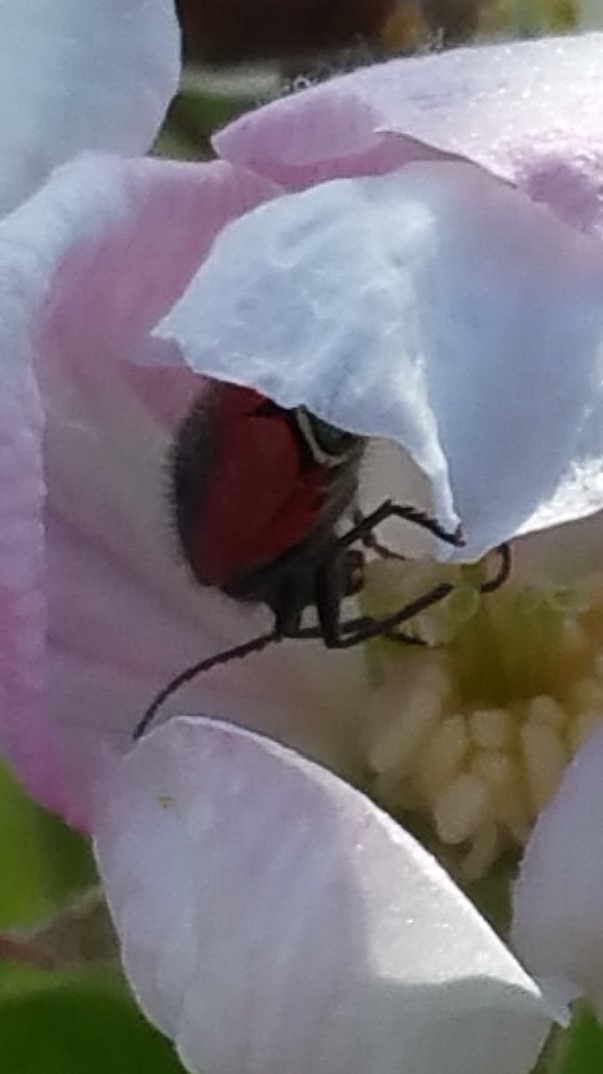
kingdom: Animalia
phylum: Arthropoda
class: Insecta
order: Coleoptera
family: Melyridae
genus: Malachius
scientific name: Malachius aeneus
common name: Scarlet malachite beetle
